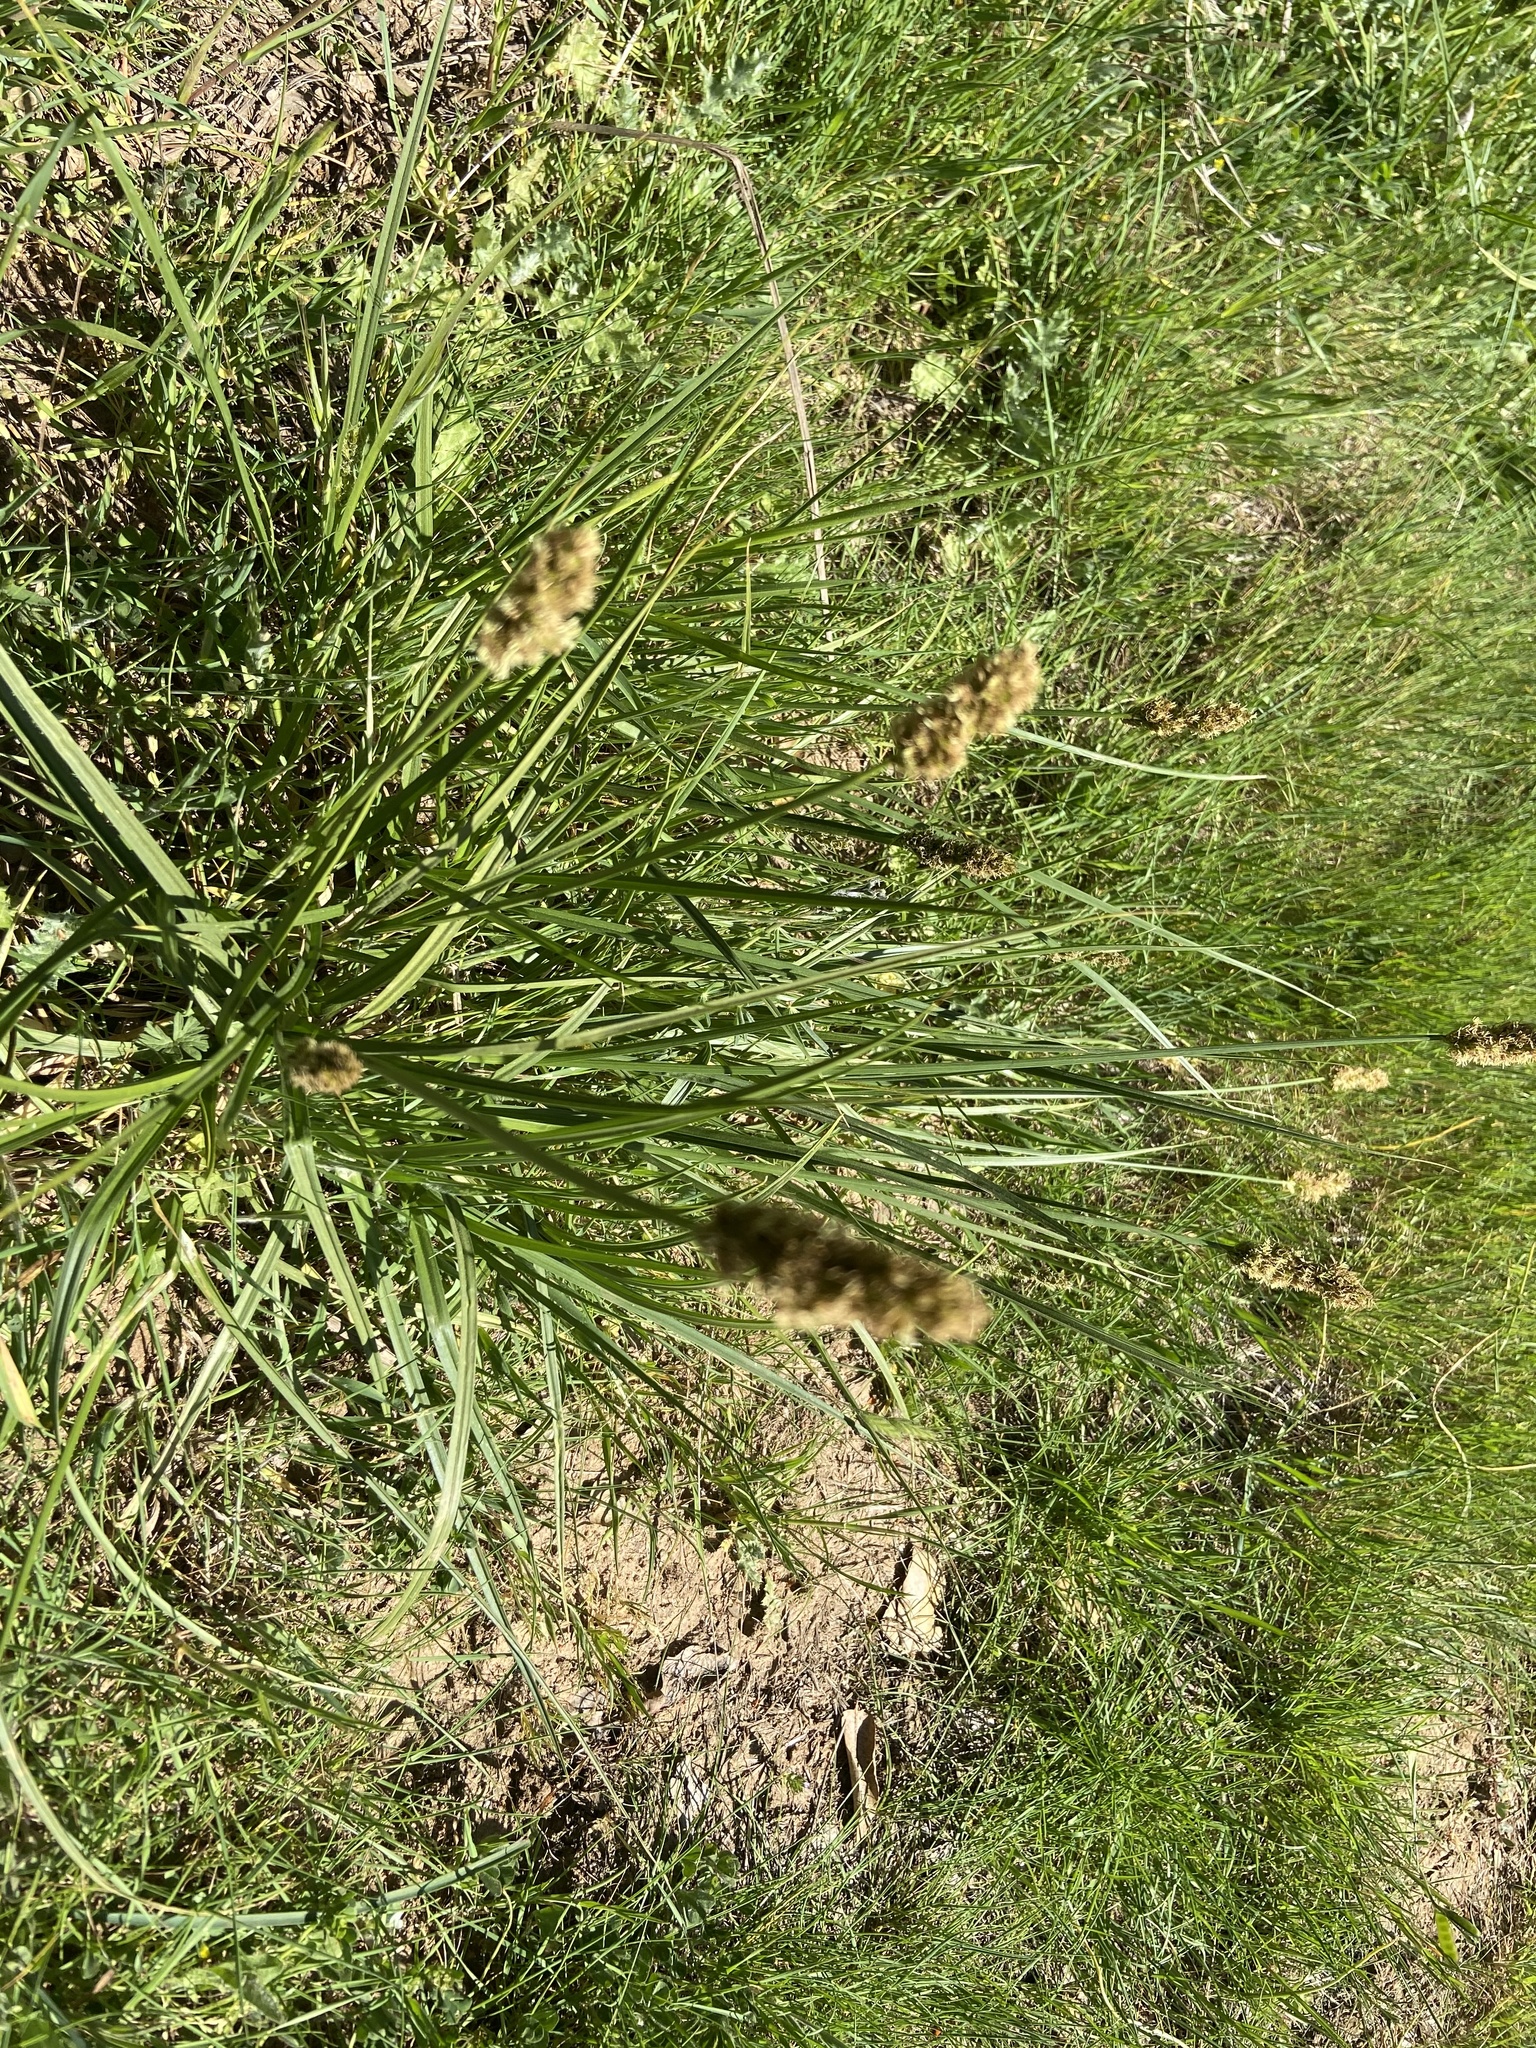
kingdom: Plantae
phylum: Tracheophyta
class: Magnoliopsida
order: Lamiales
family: Plantaginaceae
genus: Plantago
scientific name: Plantago lanceolata
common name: Ribwort plantain
